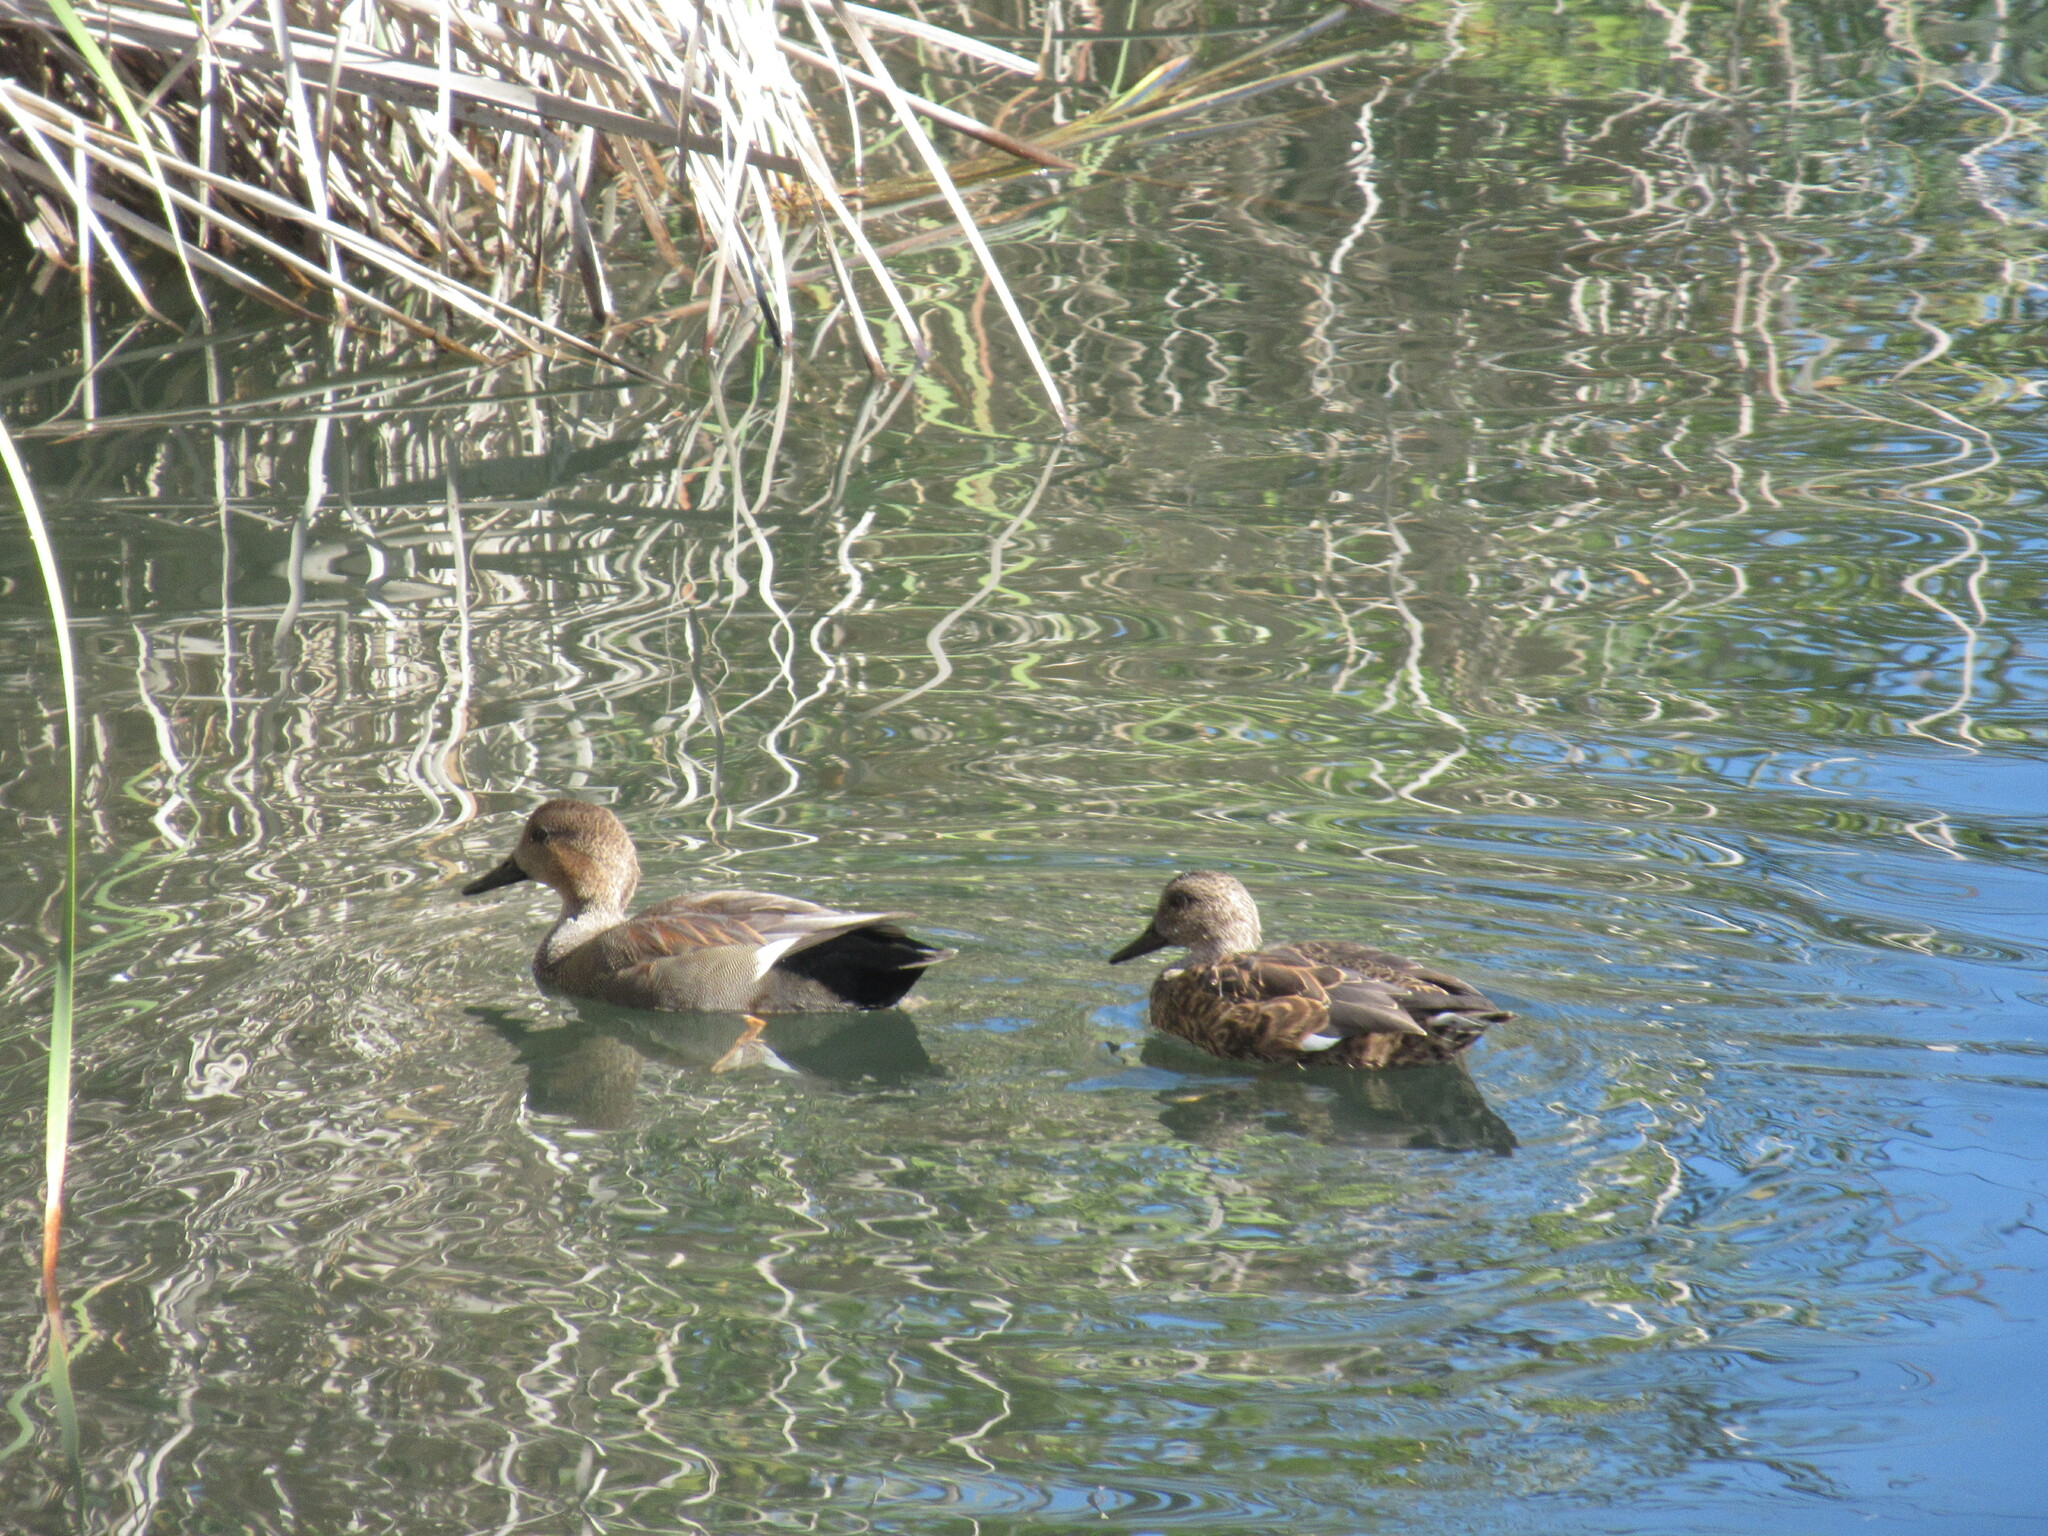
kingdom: Animalia
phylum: Chordata
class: Aves
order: Anseriformes
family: Anatidae
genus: Mareca
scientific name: Mareca strepera
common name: Gadwall
